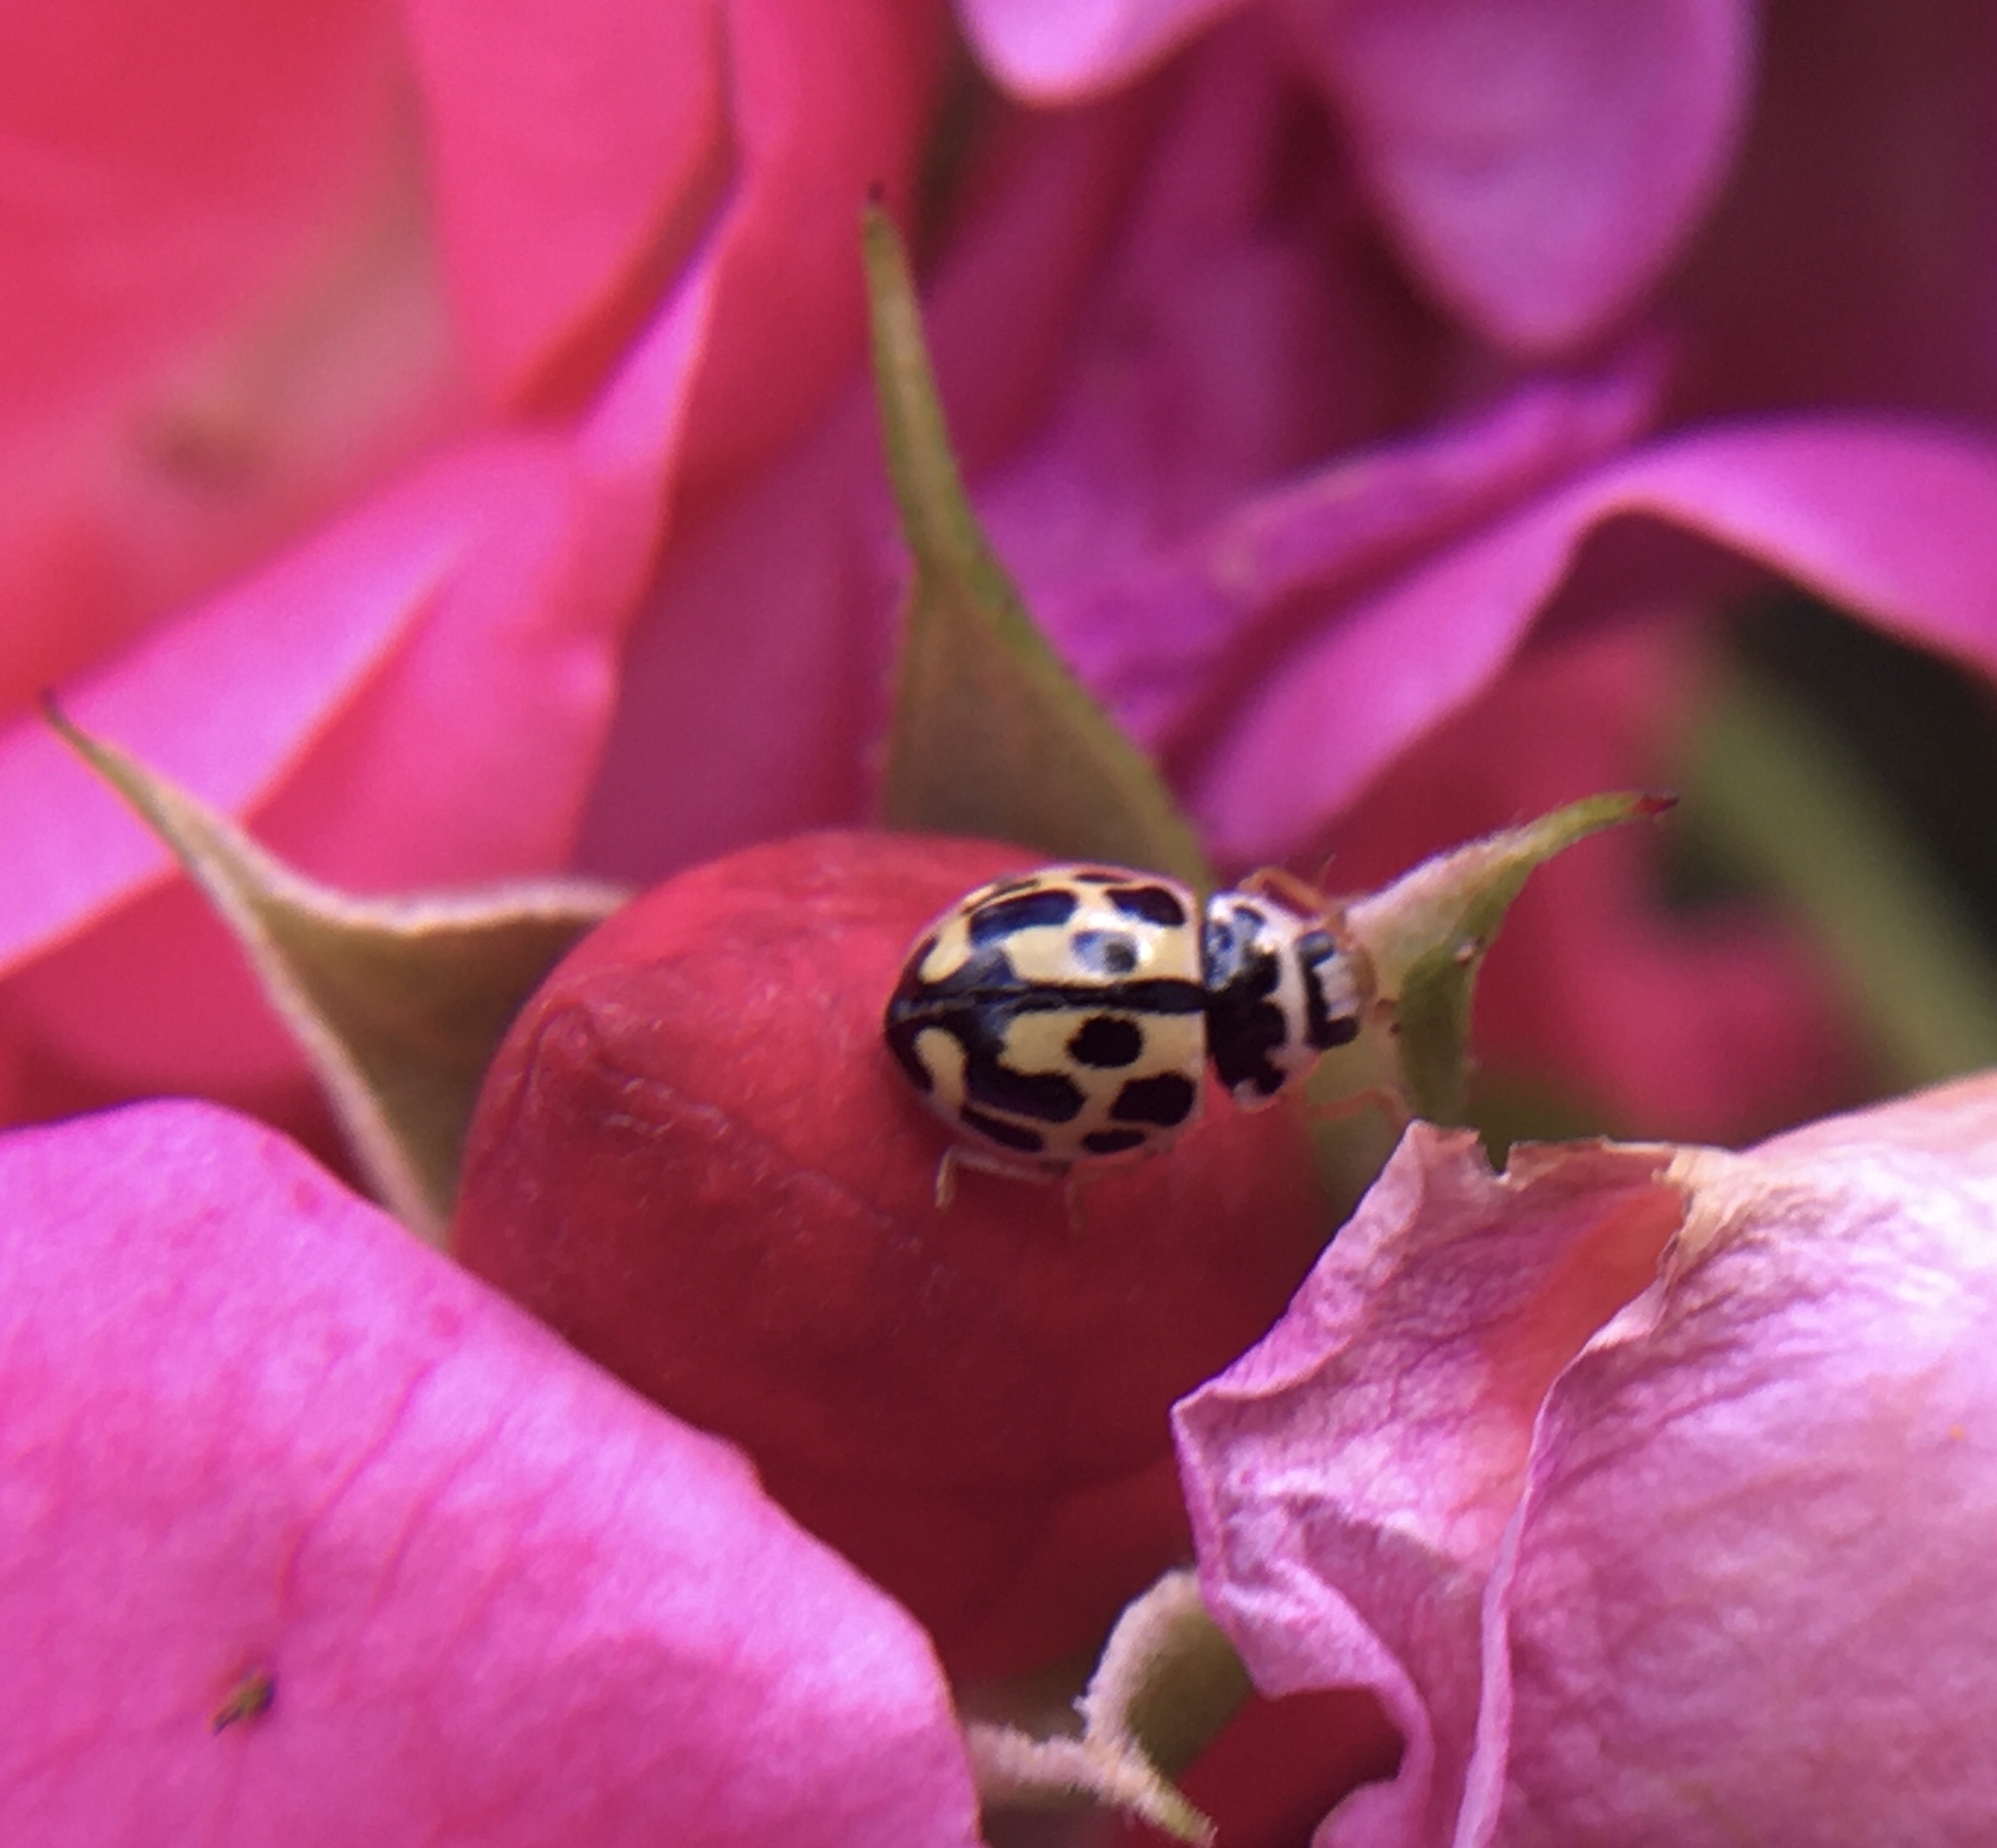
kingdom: Animalia
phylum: Arthropoda
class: Insecta
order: Coleoptera
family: Coccinellidae
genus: Propylaea
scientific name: Propylaea quatuordecimpunctata
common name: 14-spotted ladybird beetle
